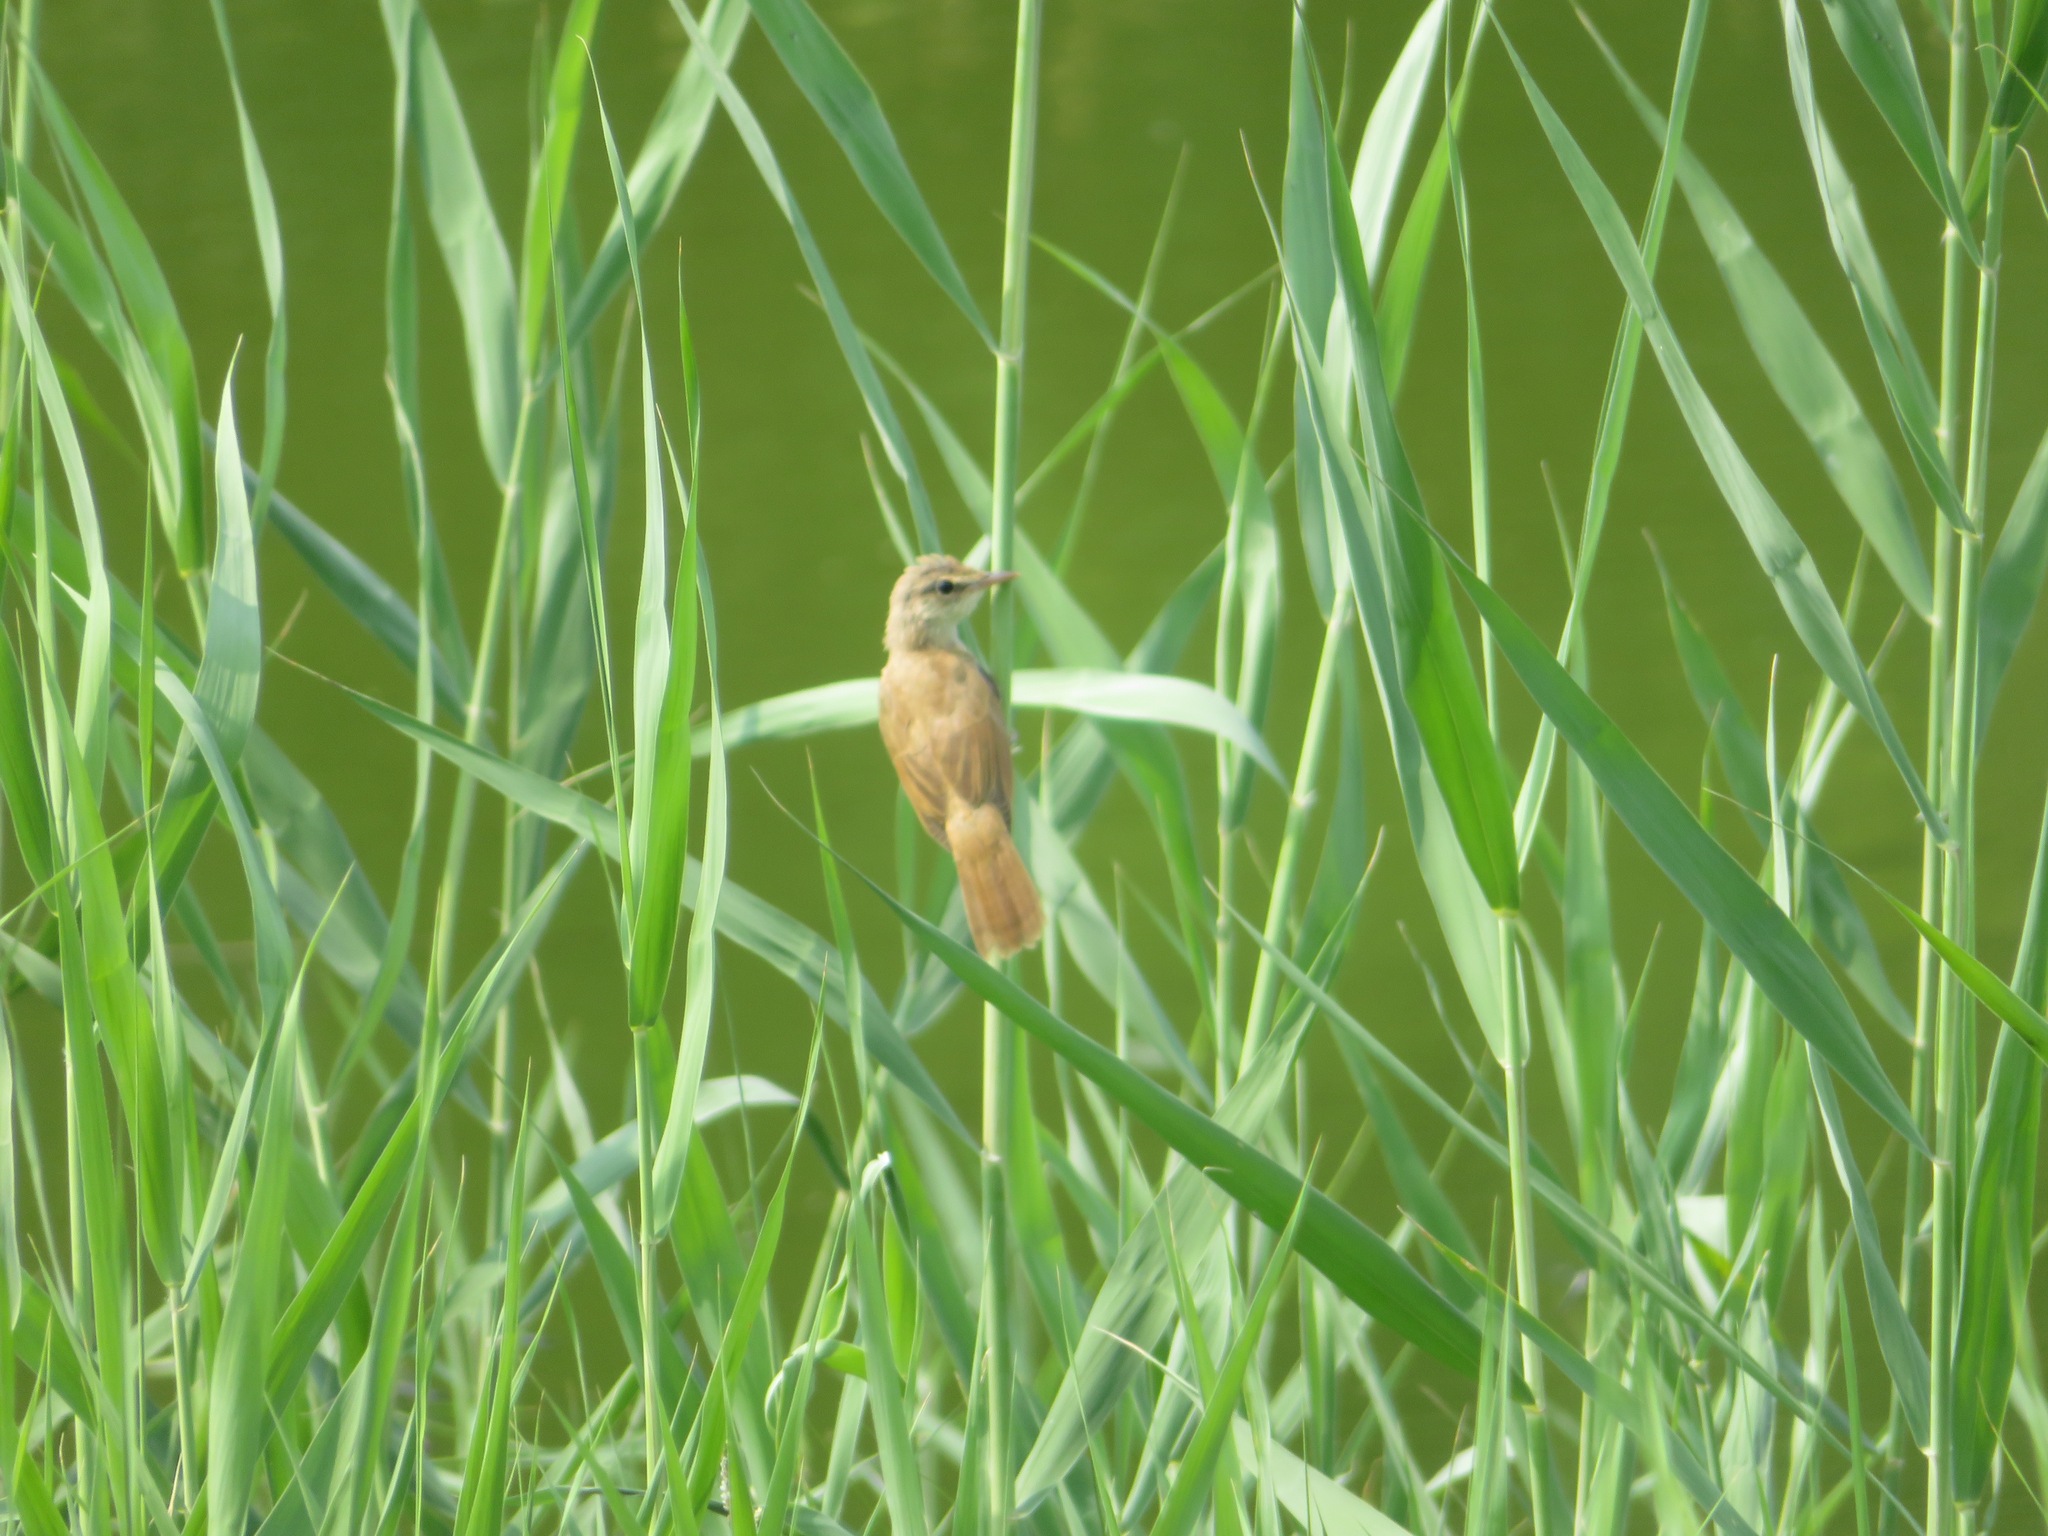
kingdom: Animalia
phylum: Chordata
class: Aves
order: Passeriformes
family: Acrocephalidae
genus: Acrocephalus
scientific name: Acrocephalus orientalis
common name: Oriental reed warbler
